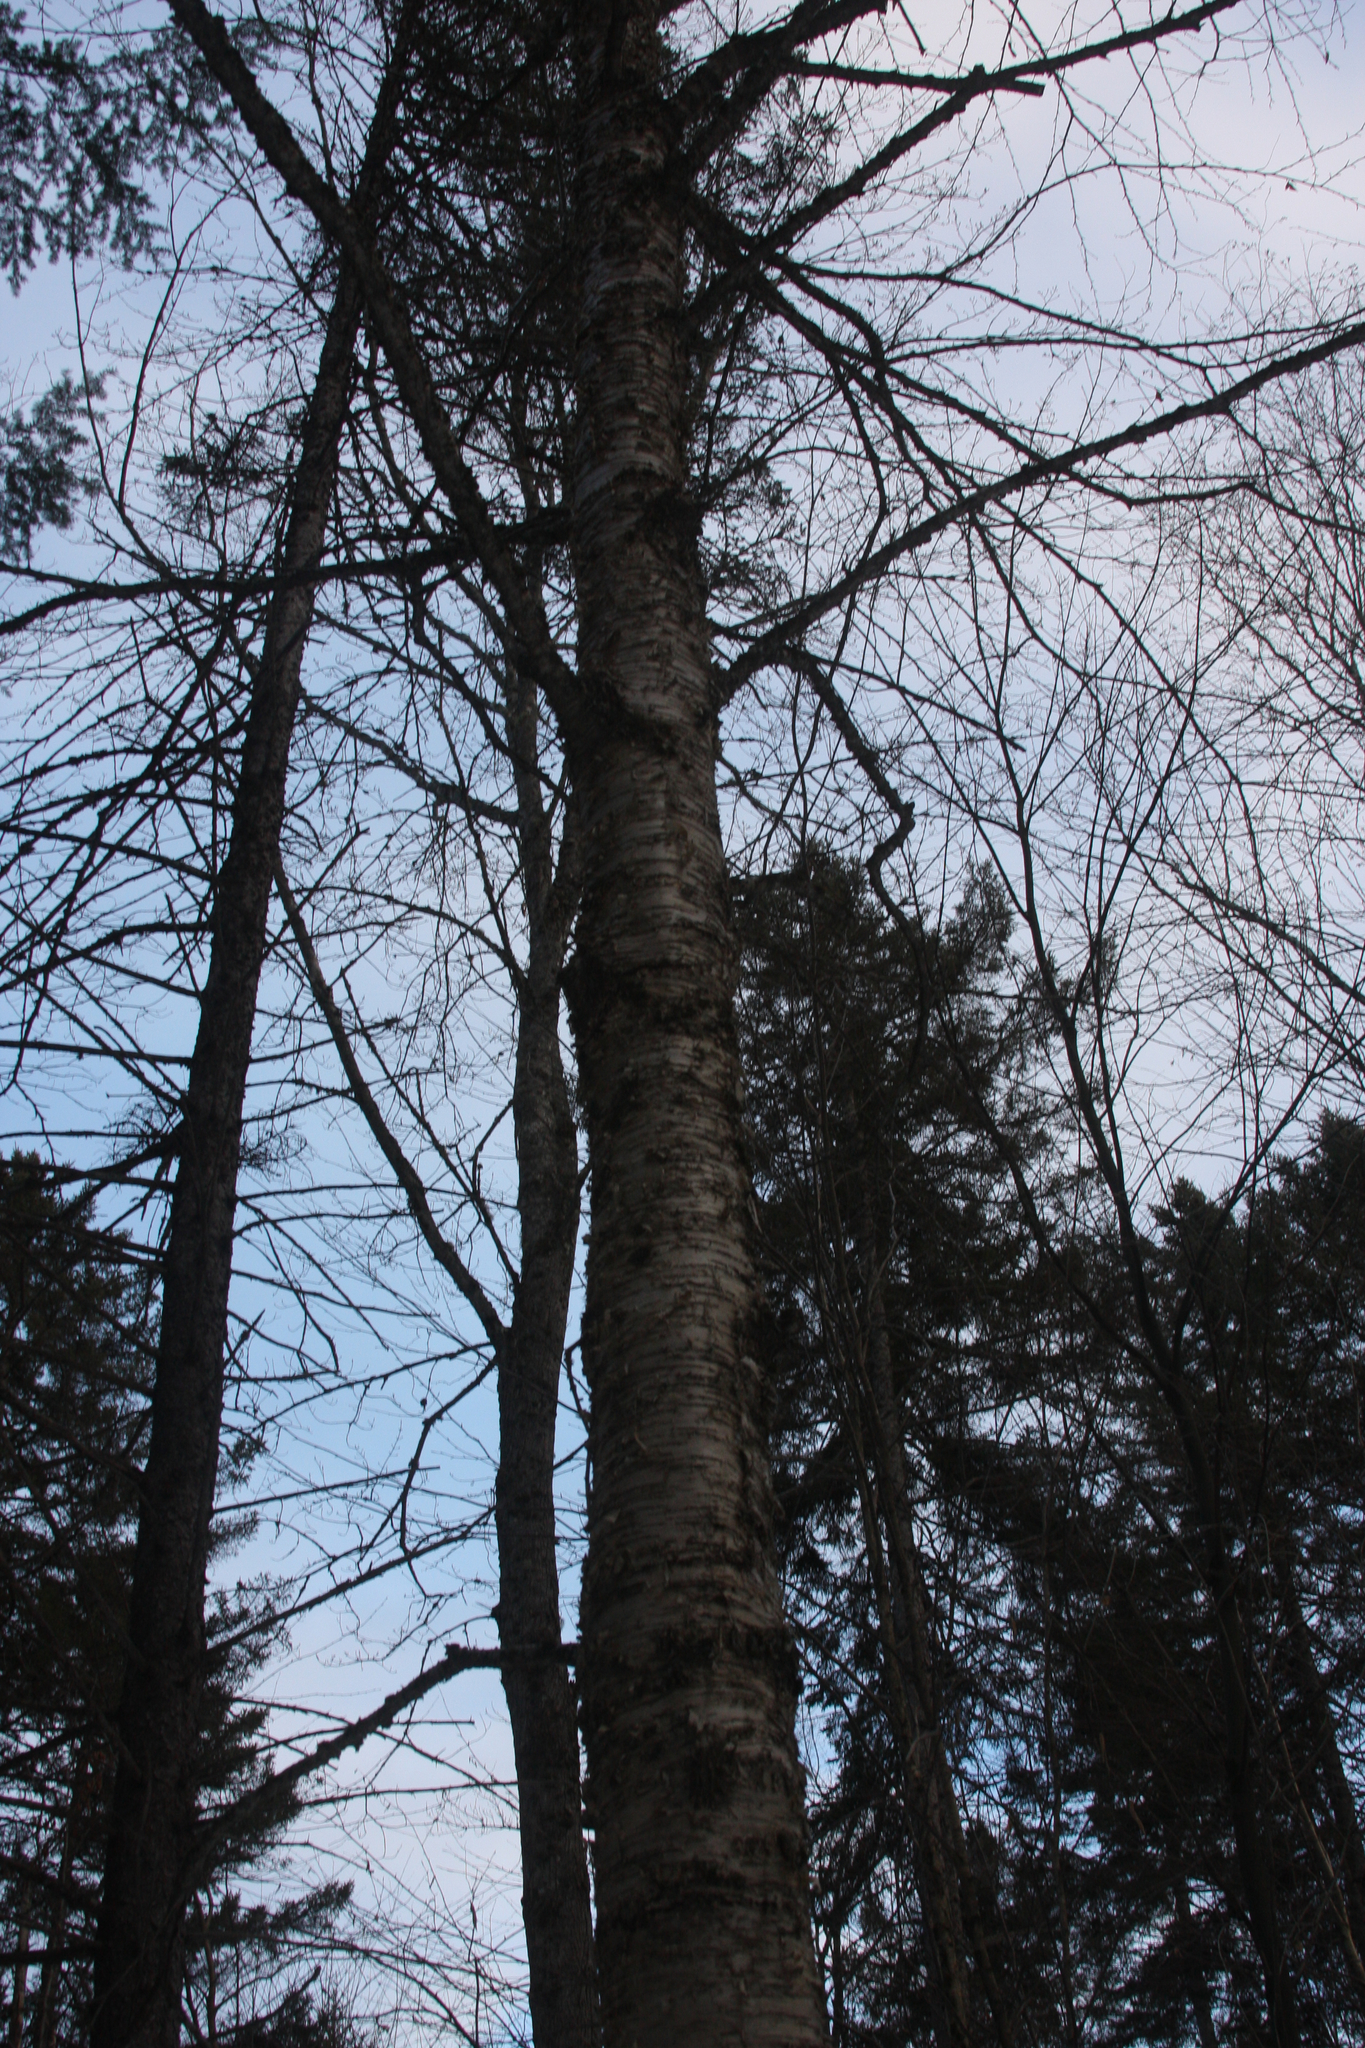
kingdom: Plantae
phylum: Tracheophyta
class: Magnoliopsida
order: Fagales
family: Betulaceae
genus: Betula
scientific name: Betula alleghaniensis
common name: Yellow birch
